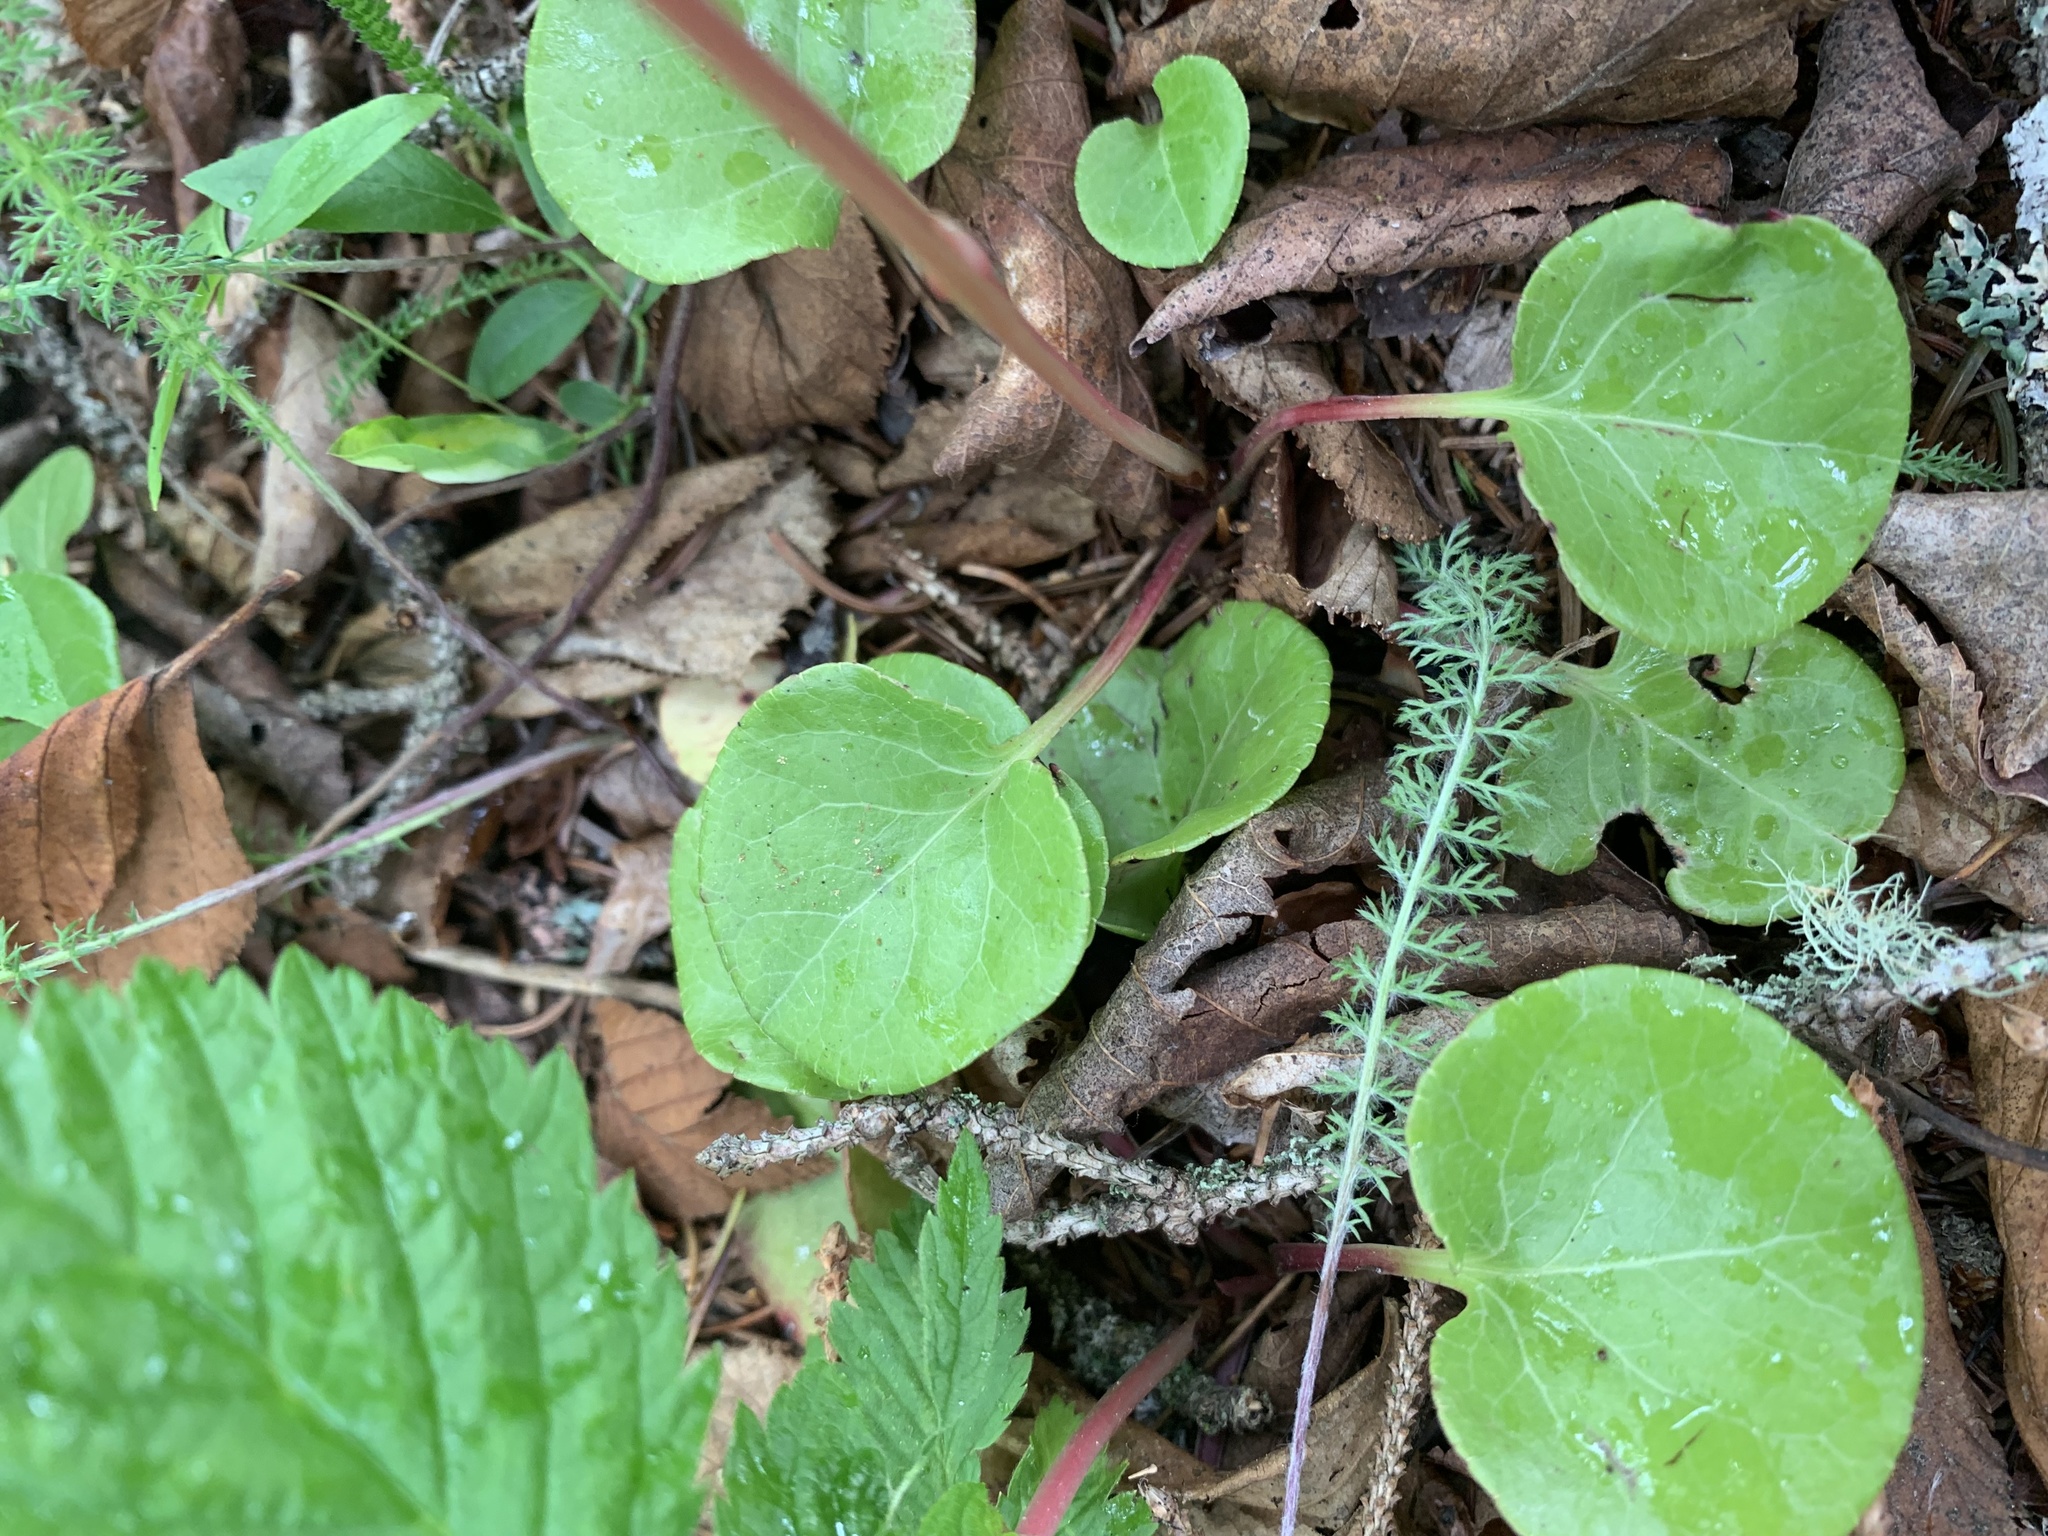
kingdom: Plantae
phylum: Tracheophyta
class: Magnoliopsida
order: Ericales
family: Ericaceae
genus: Pyrola
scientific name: Pyrola asarifolia
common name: Bog wintergreen
